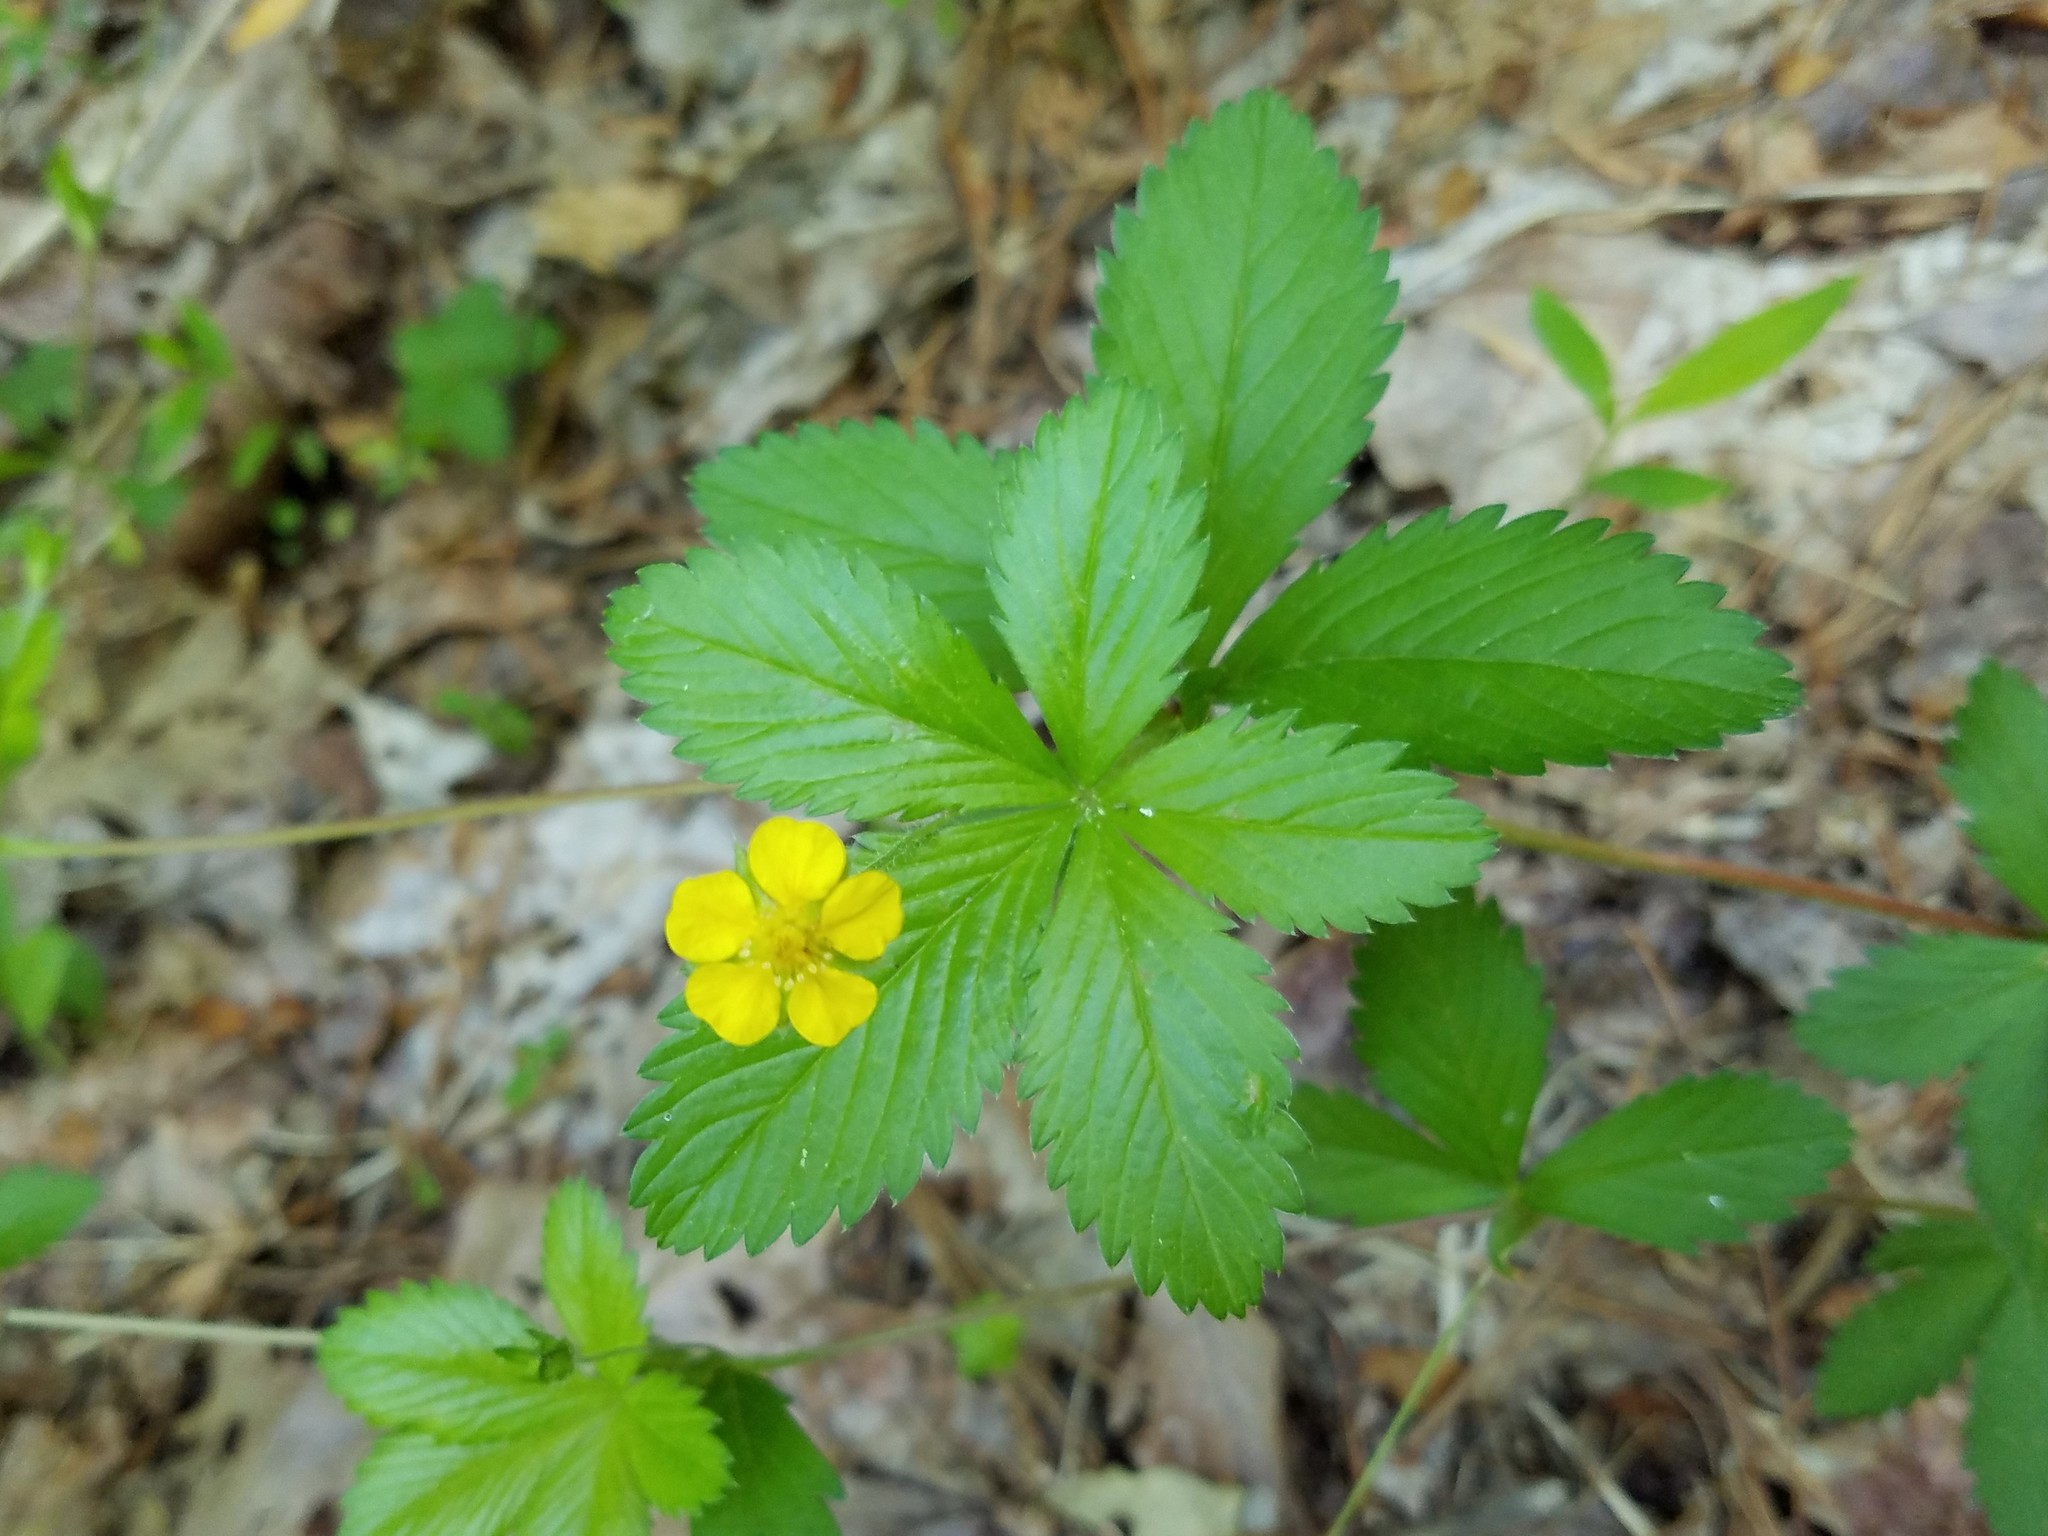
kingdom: Plantae
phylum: Tracheophyta
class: Magnoliopsida
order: Rosales
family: Rosaceae
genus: Potentilla
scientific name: Potentilla simplex
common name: Old field cinquefoil
